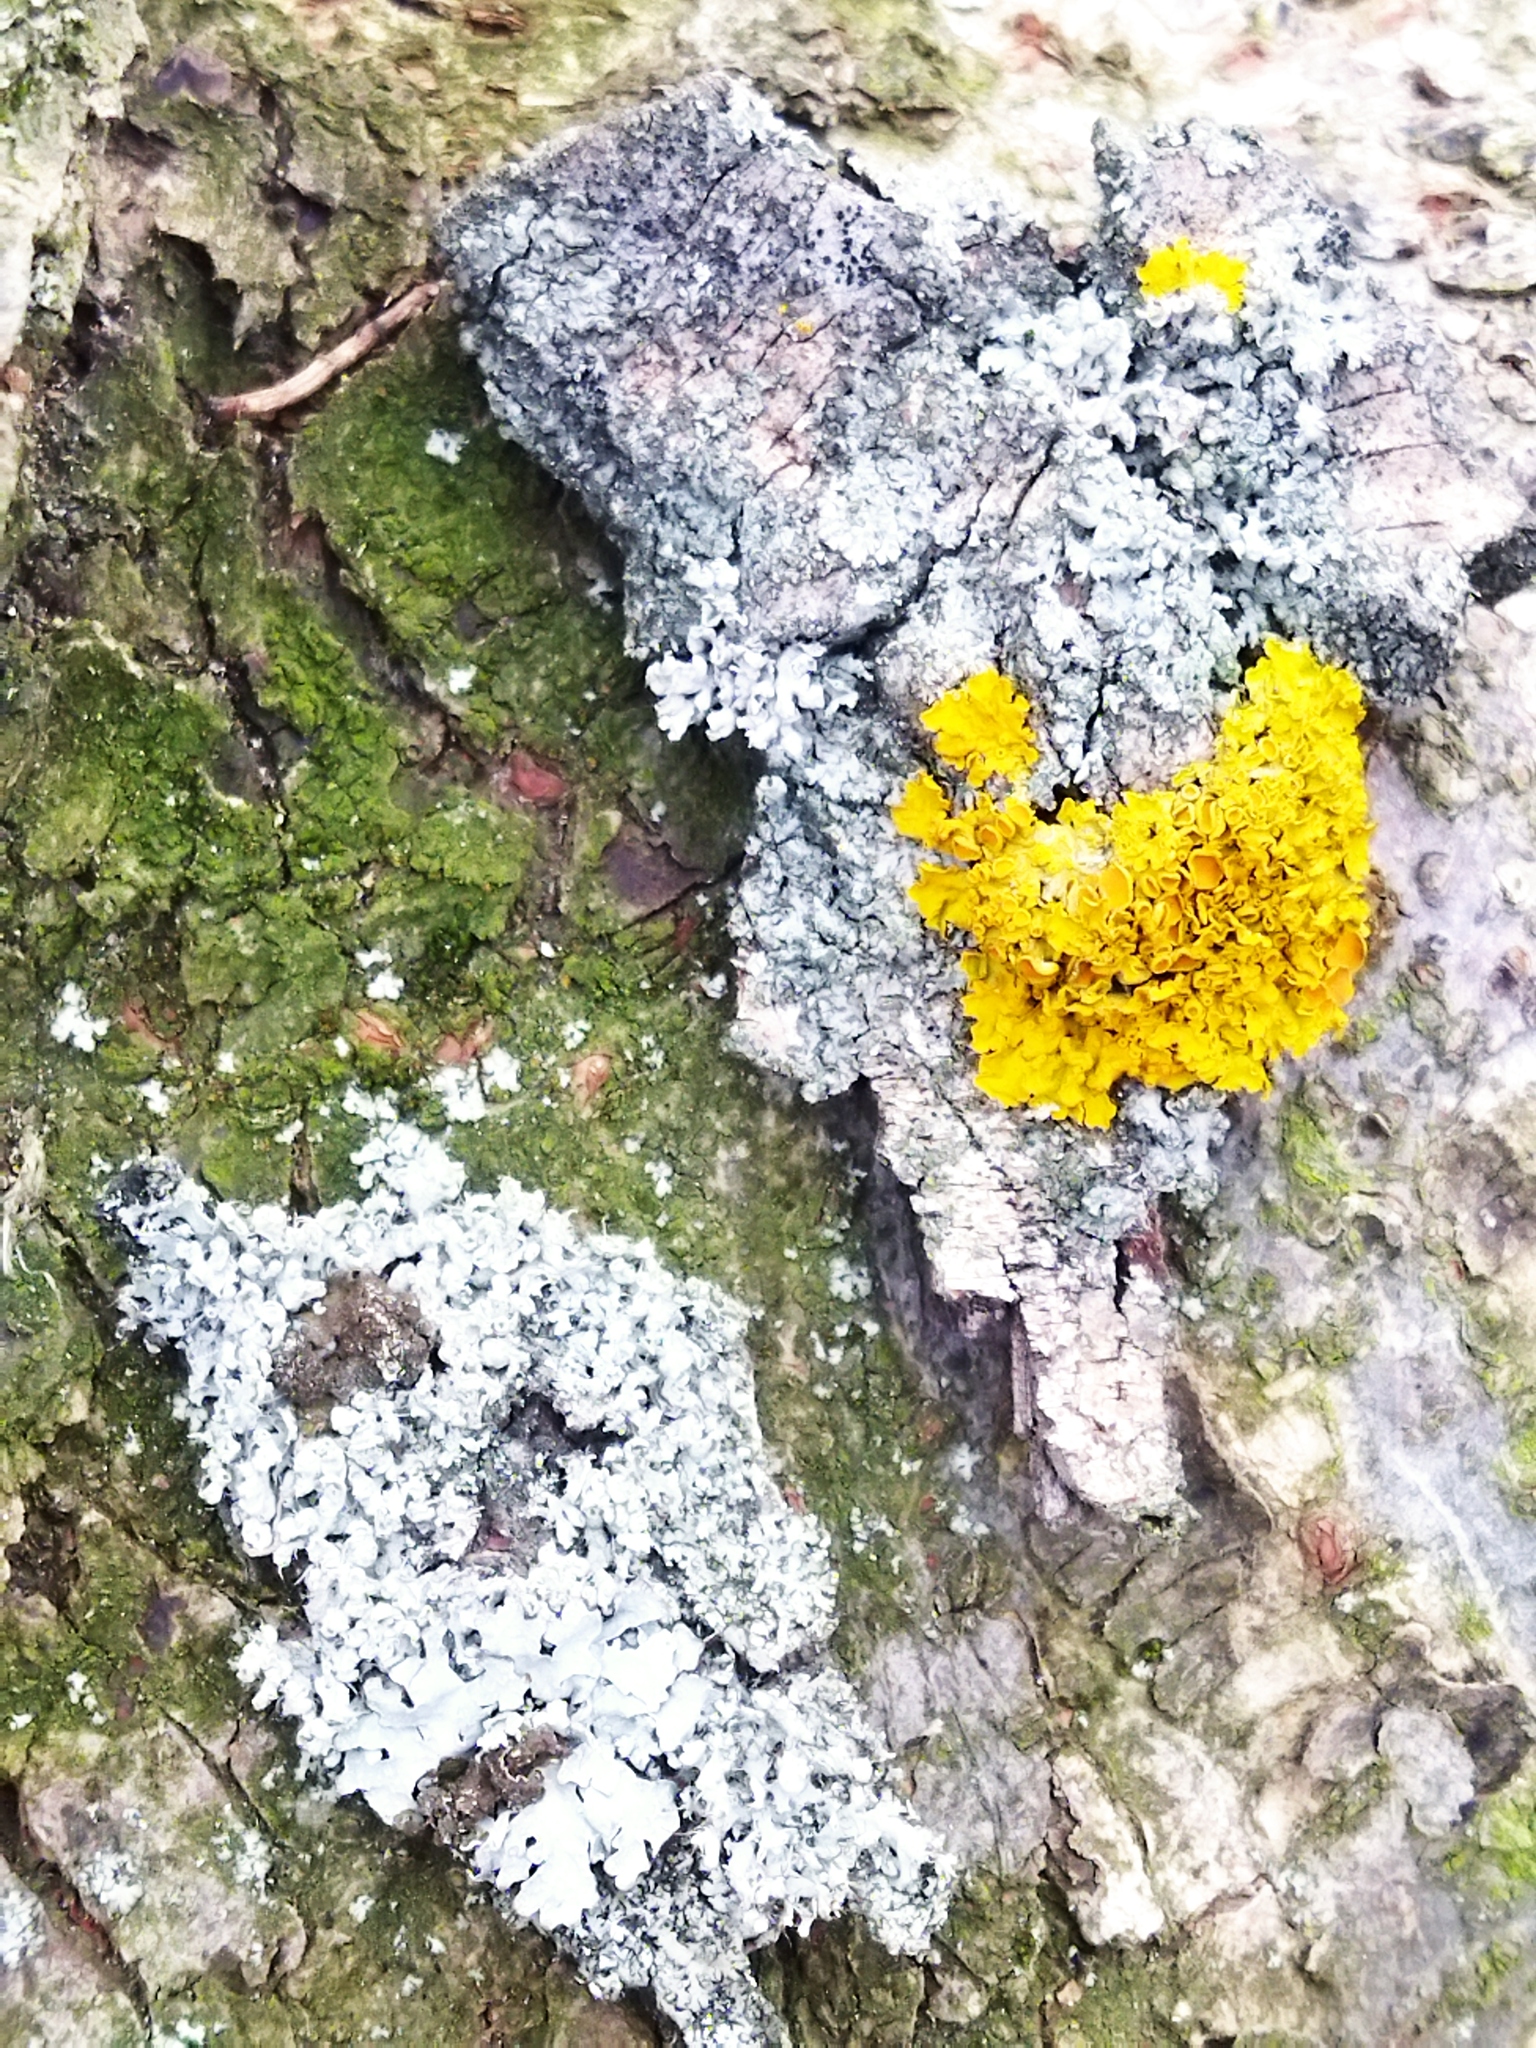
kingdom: Fungi
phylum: Ascomycota
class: Lecanoromycetes
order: Teloschistales
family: Teloschistaceae
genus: Xanthoria
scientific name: Xanthoria parietina
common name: Common orange lichen
